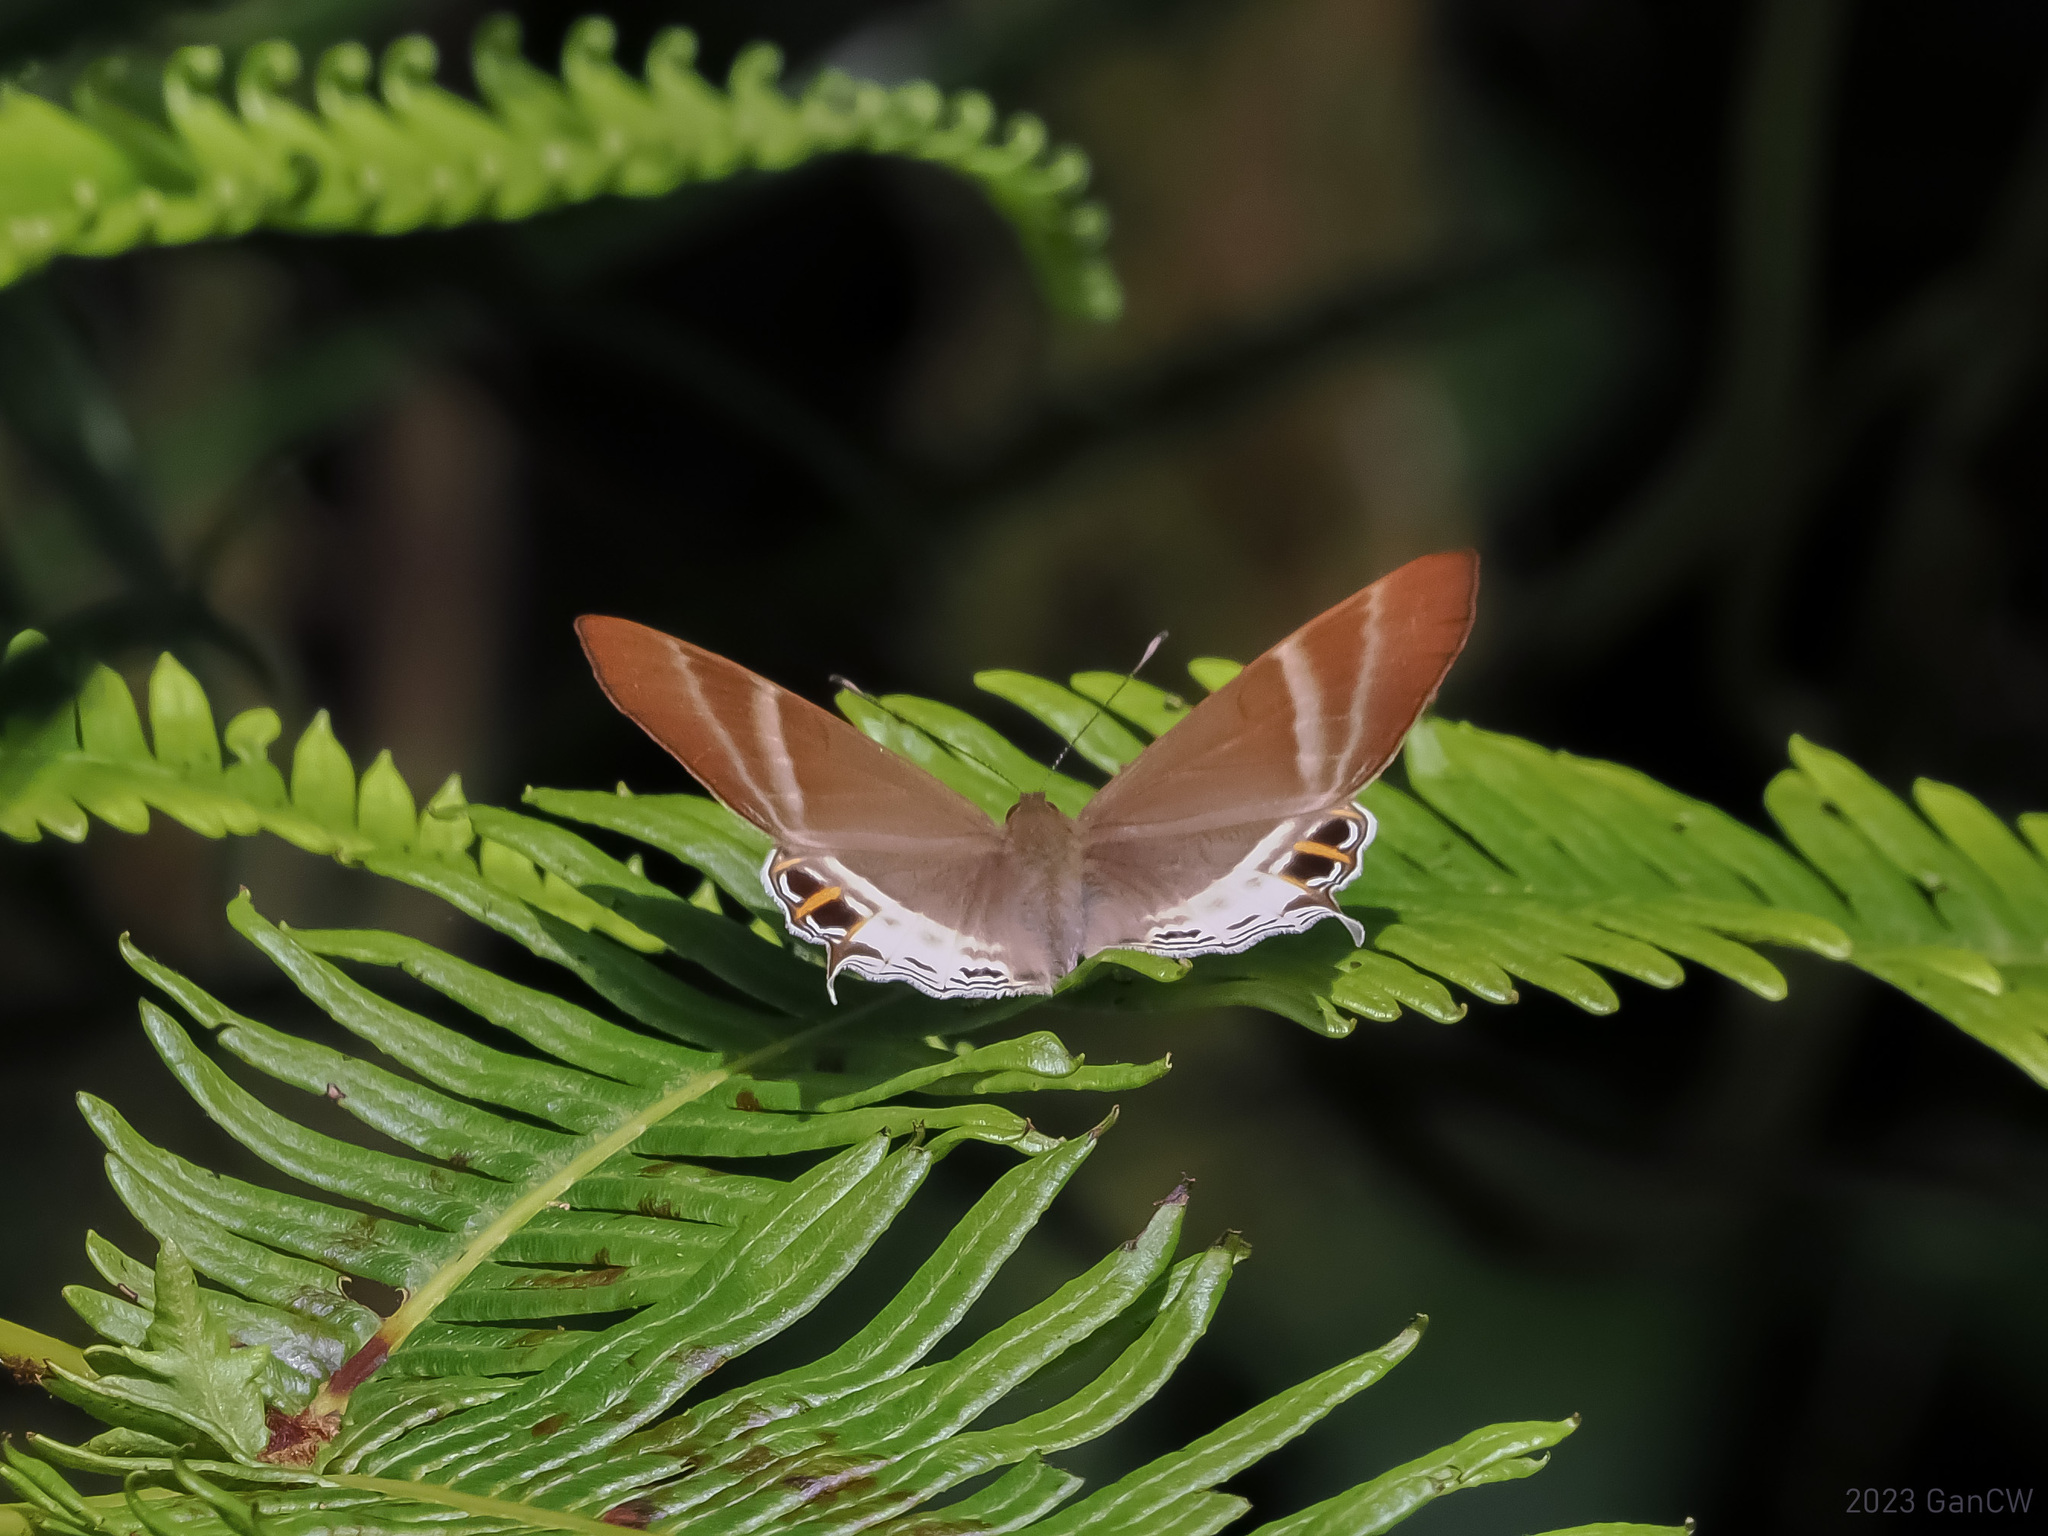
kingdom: Animalia
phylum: Arthropoda
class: Insecta
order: Lepidoptera
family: Riodinidae
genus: Archigenes
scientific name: Archigenes aita
